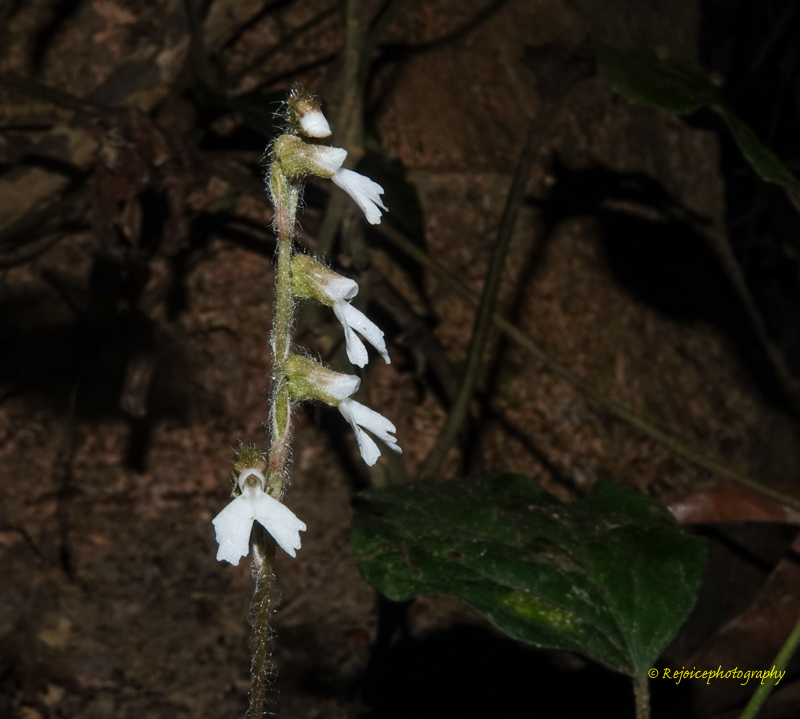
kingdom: Plantae
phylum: Tracheophyta
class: Liliopsida
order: Asparagales
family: Orchidaceae
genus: Zeuxine
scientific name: Zeuxine longilabris
